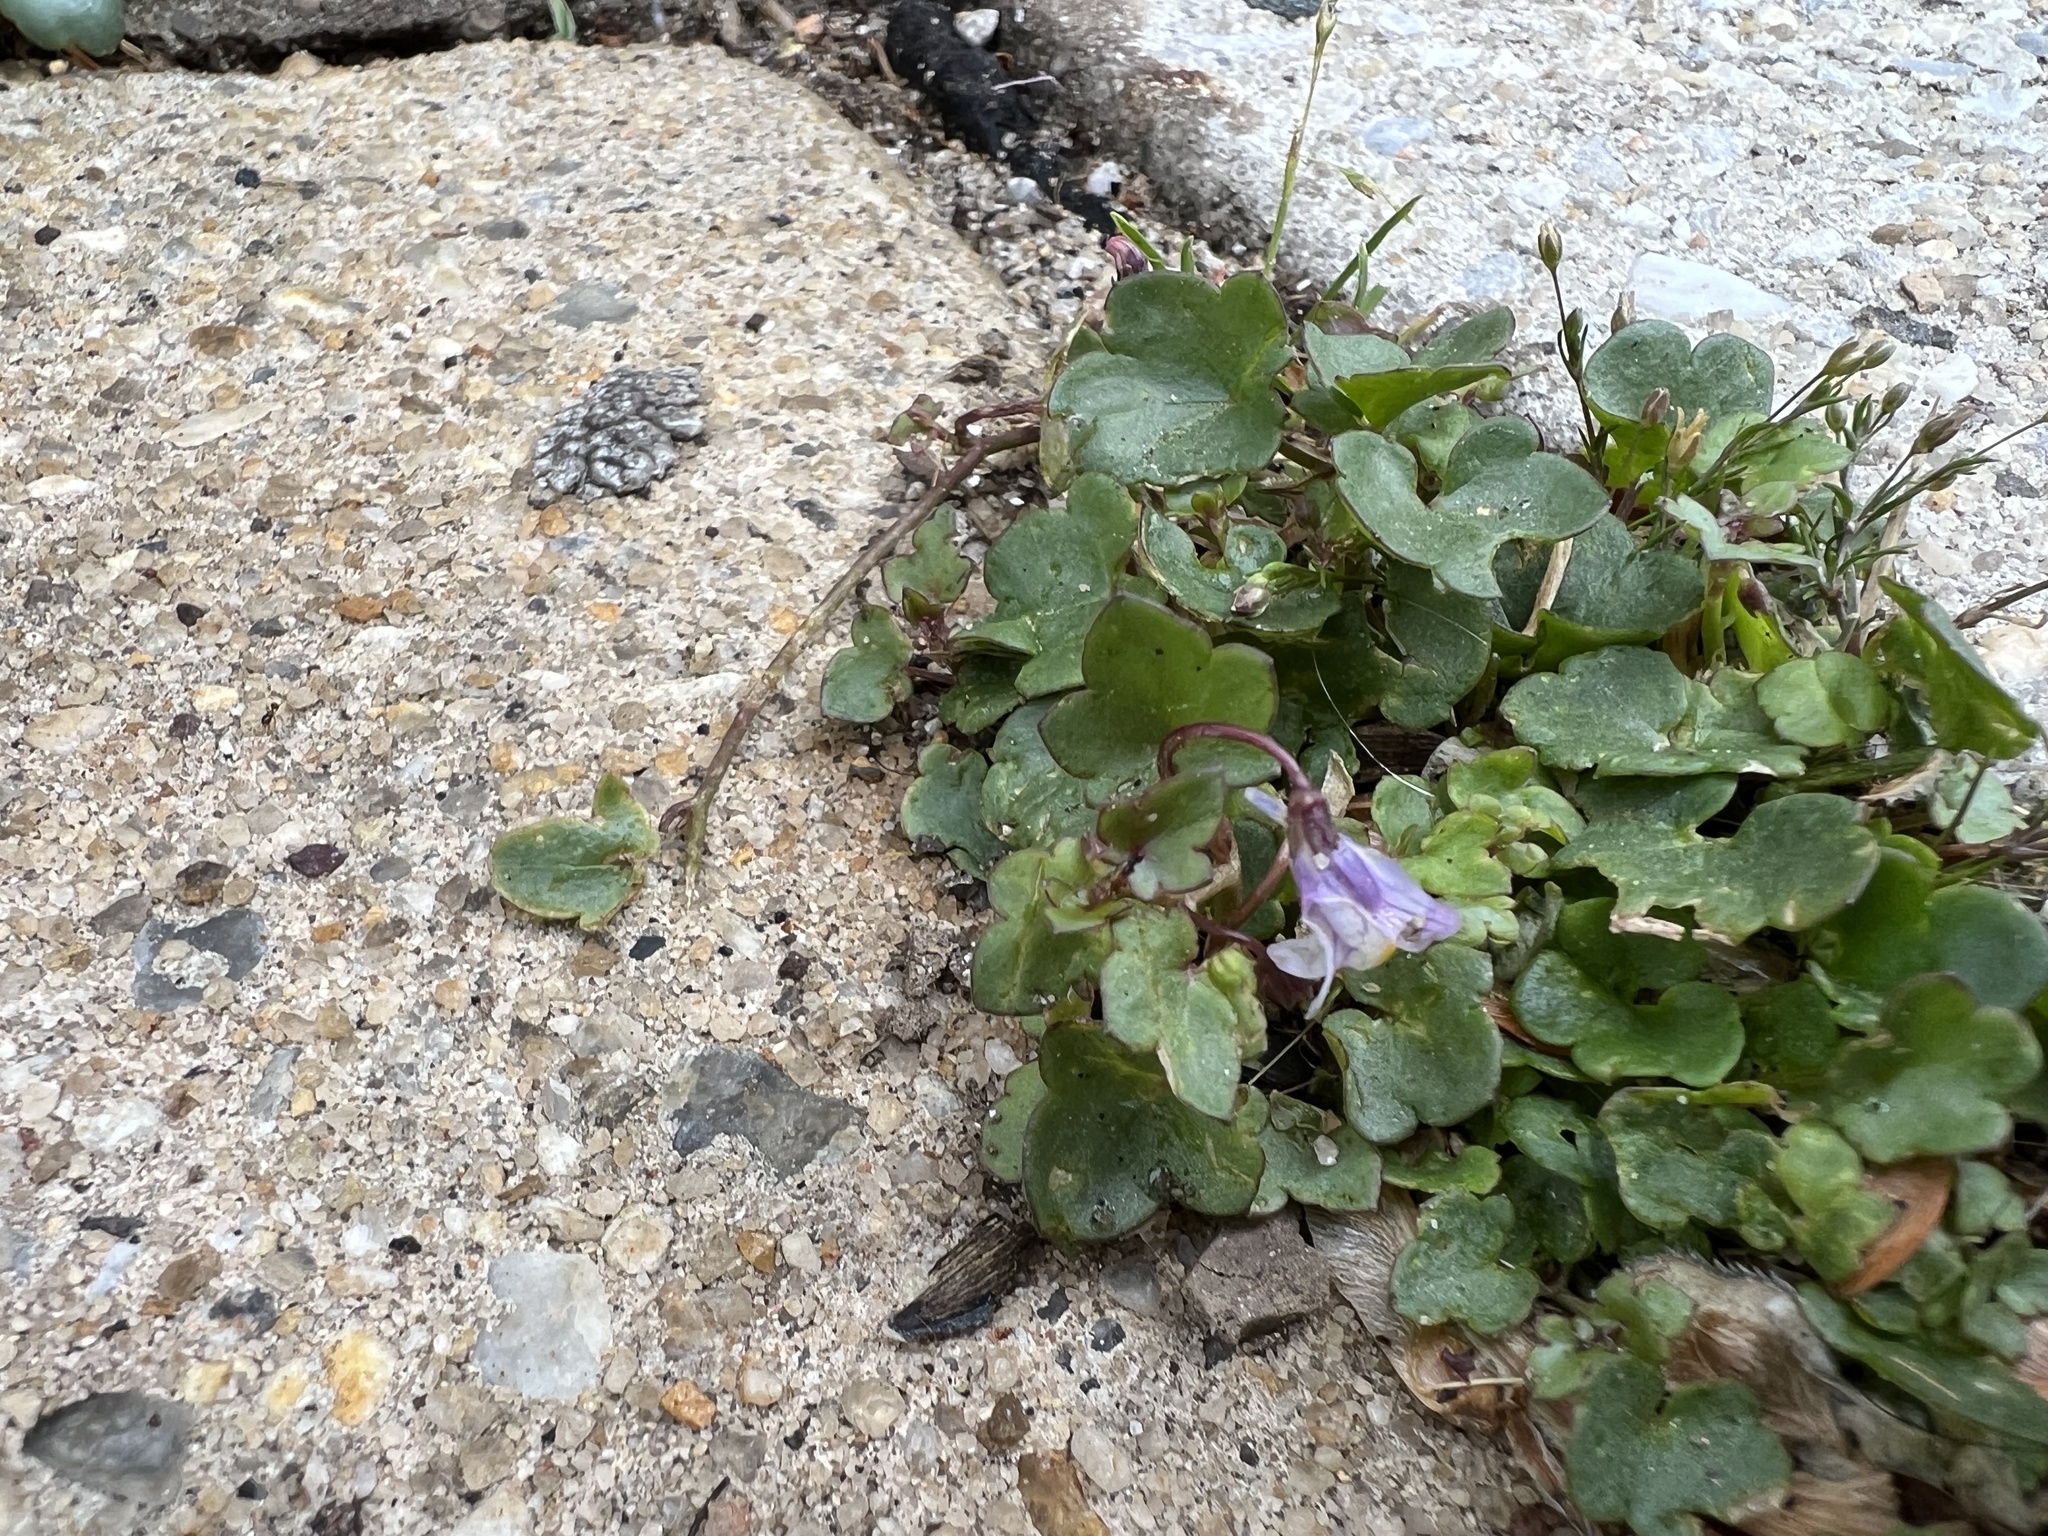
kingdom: Plantae
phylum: Tracheophyta
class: Magnoliopsida
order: Lamiales
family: Plantaginaceae
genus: Cymbalaria
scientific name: Cymbalaria muralis
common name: Ivy-leaved toadflax
